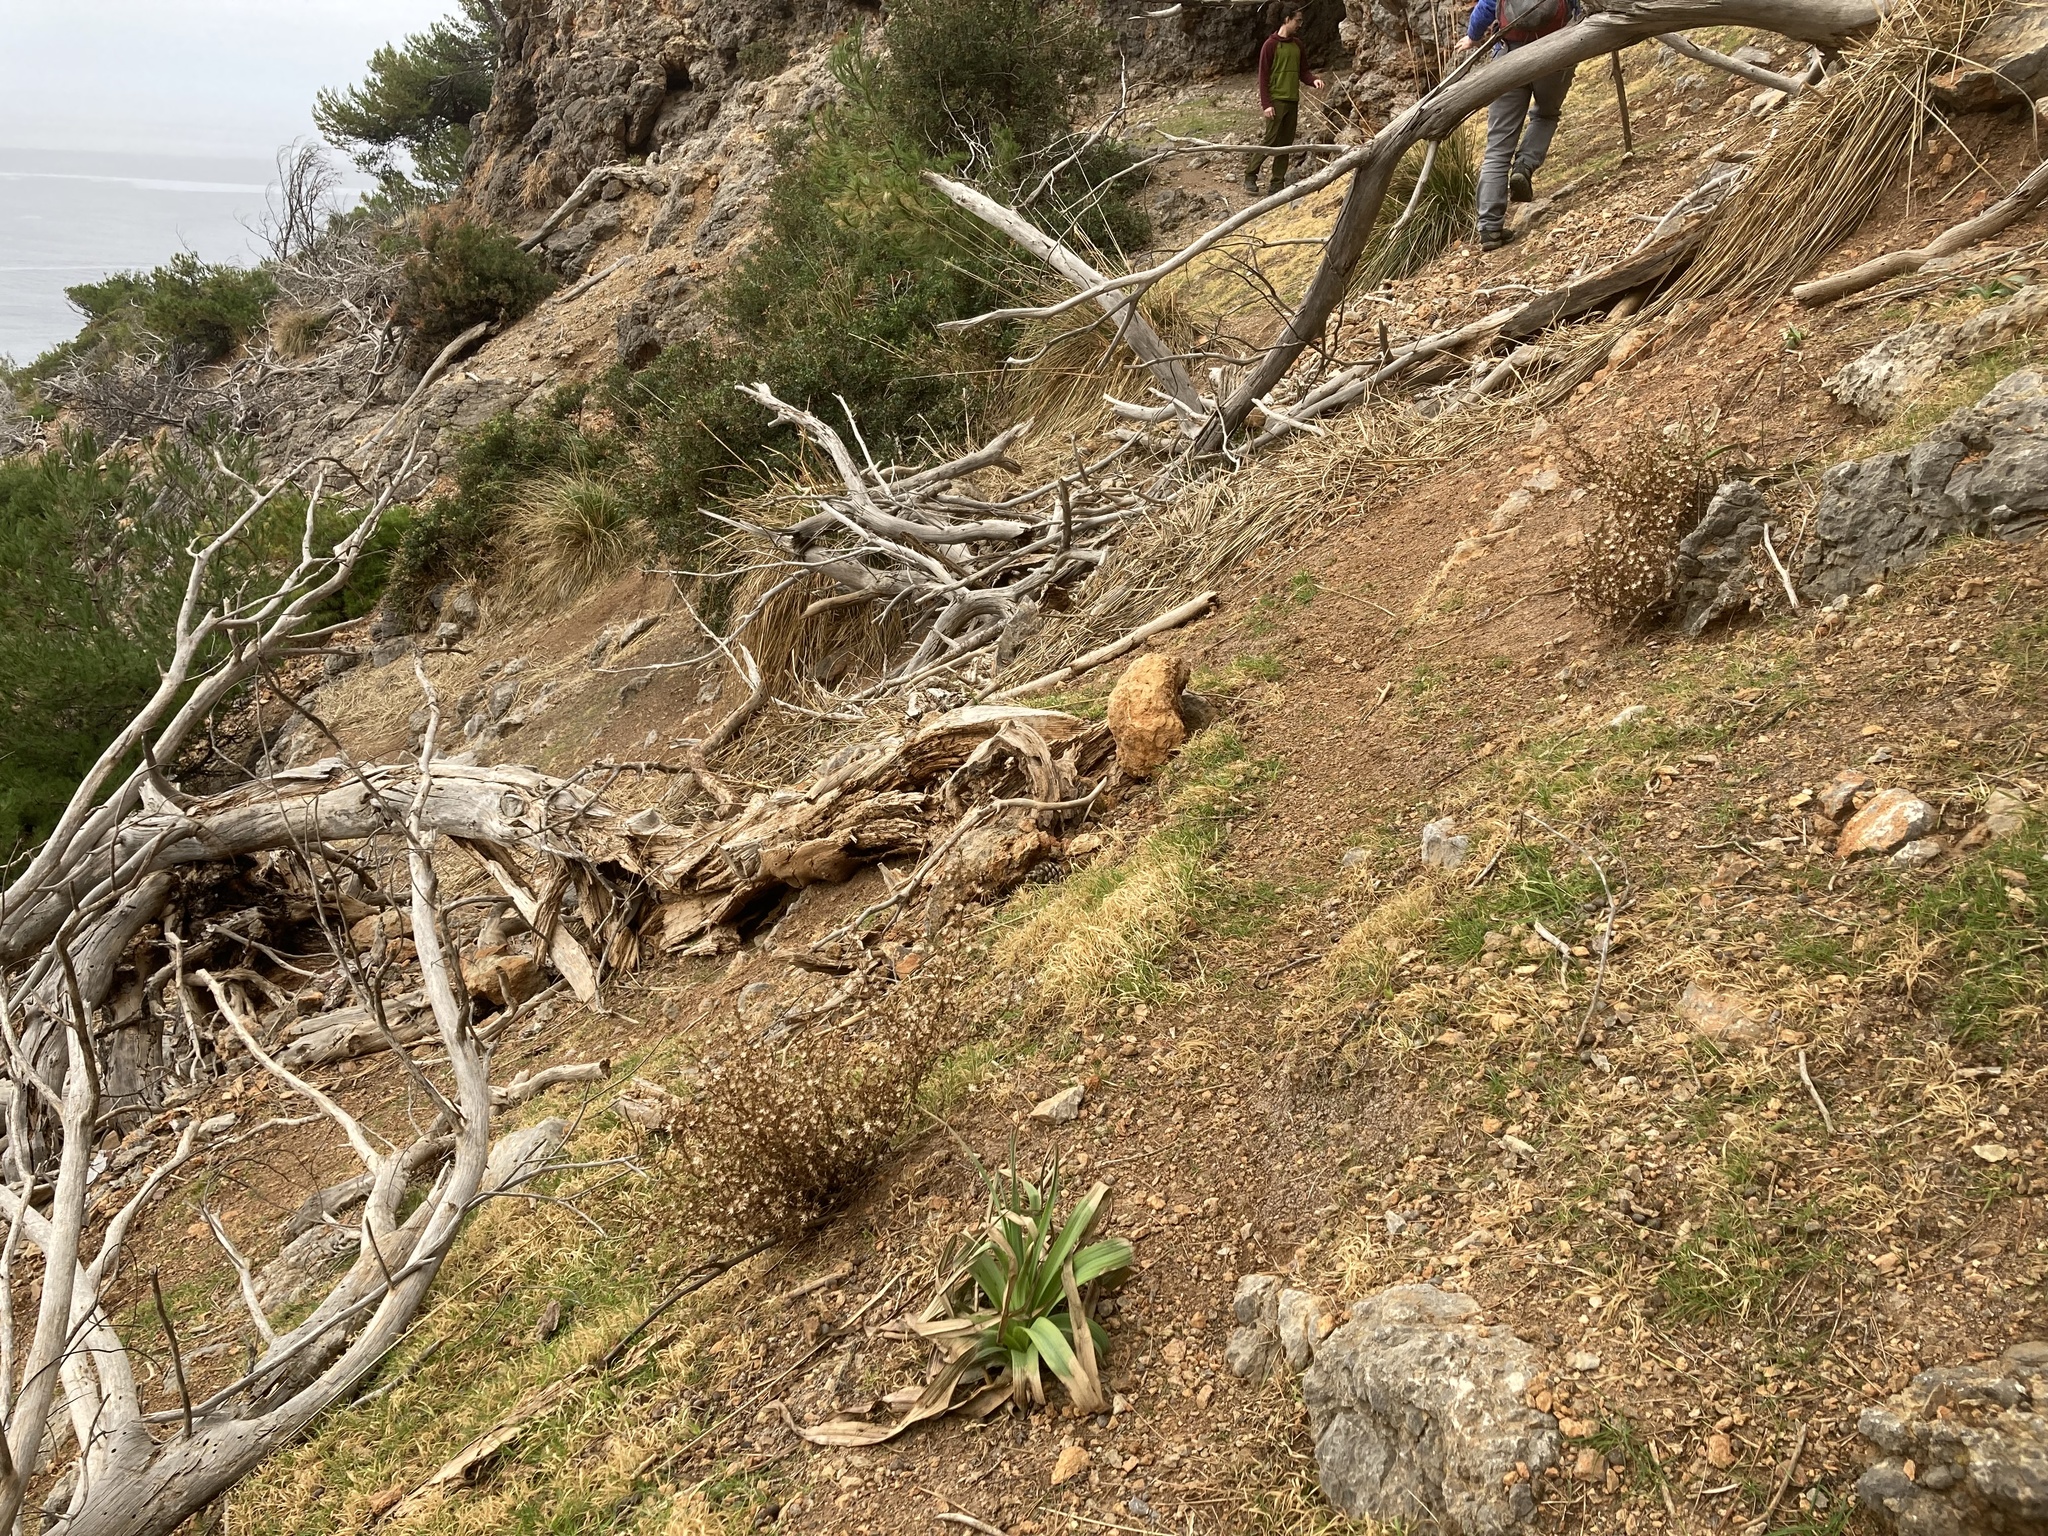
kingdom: Plantae
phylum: Tracheophyta
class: Magnoliopsida
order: Asterales
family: Asteraceae
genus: Dittrichia
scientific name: Dittrichia graveolens
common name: Stinking fleabane
